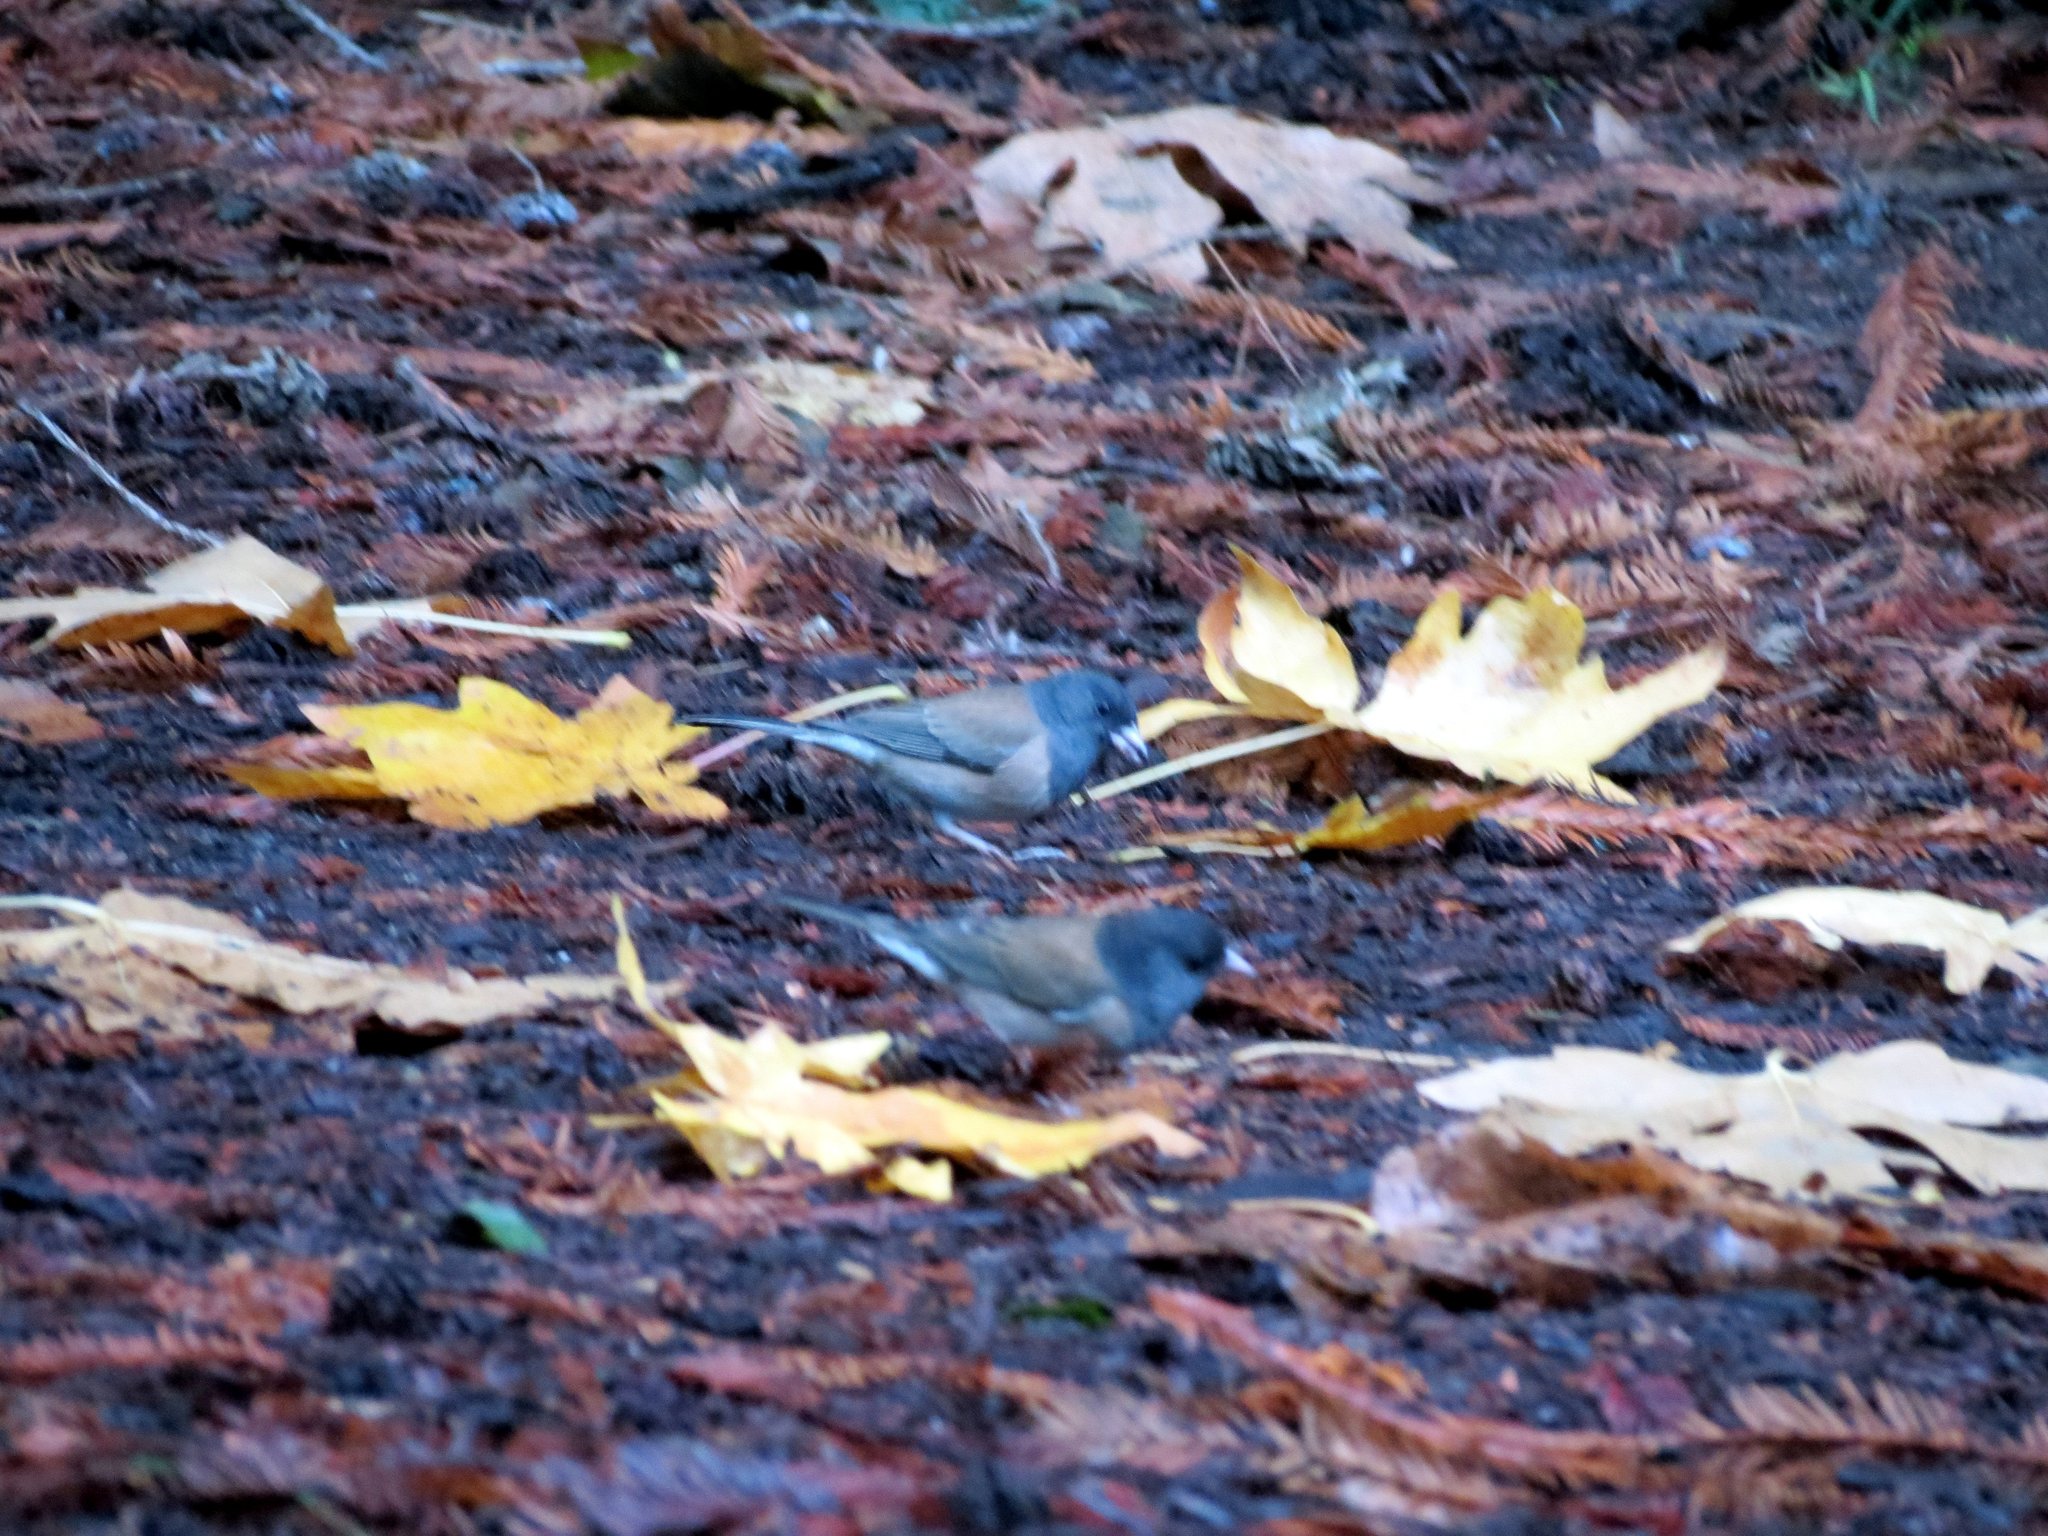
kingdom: Animalia
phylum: Chordata
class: Aves
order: Passeriformes
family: Passerellidae
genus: Junco
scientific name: Junco hyemalis
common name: Dark-eyed junco
